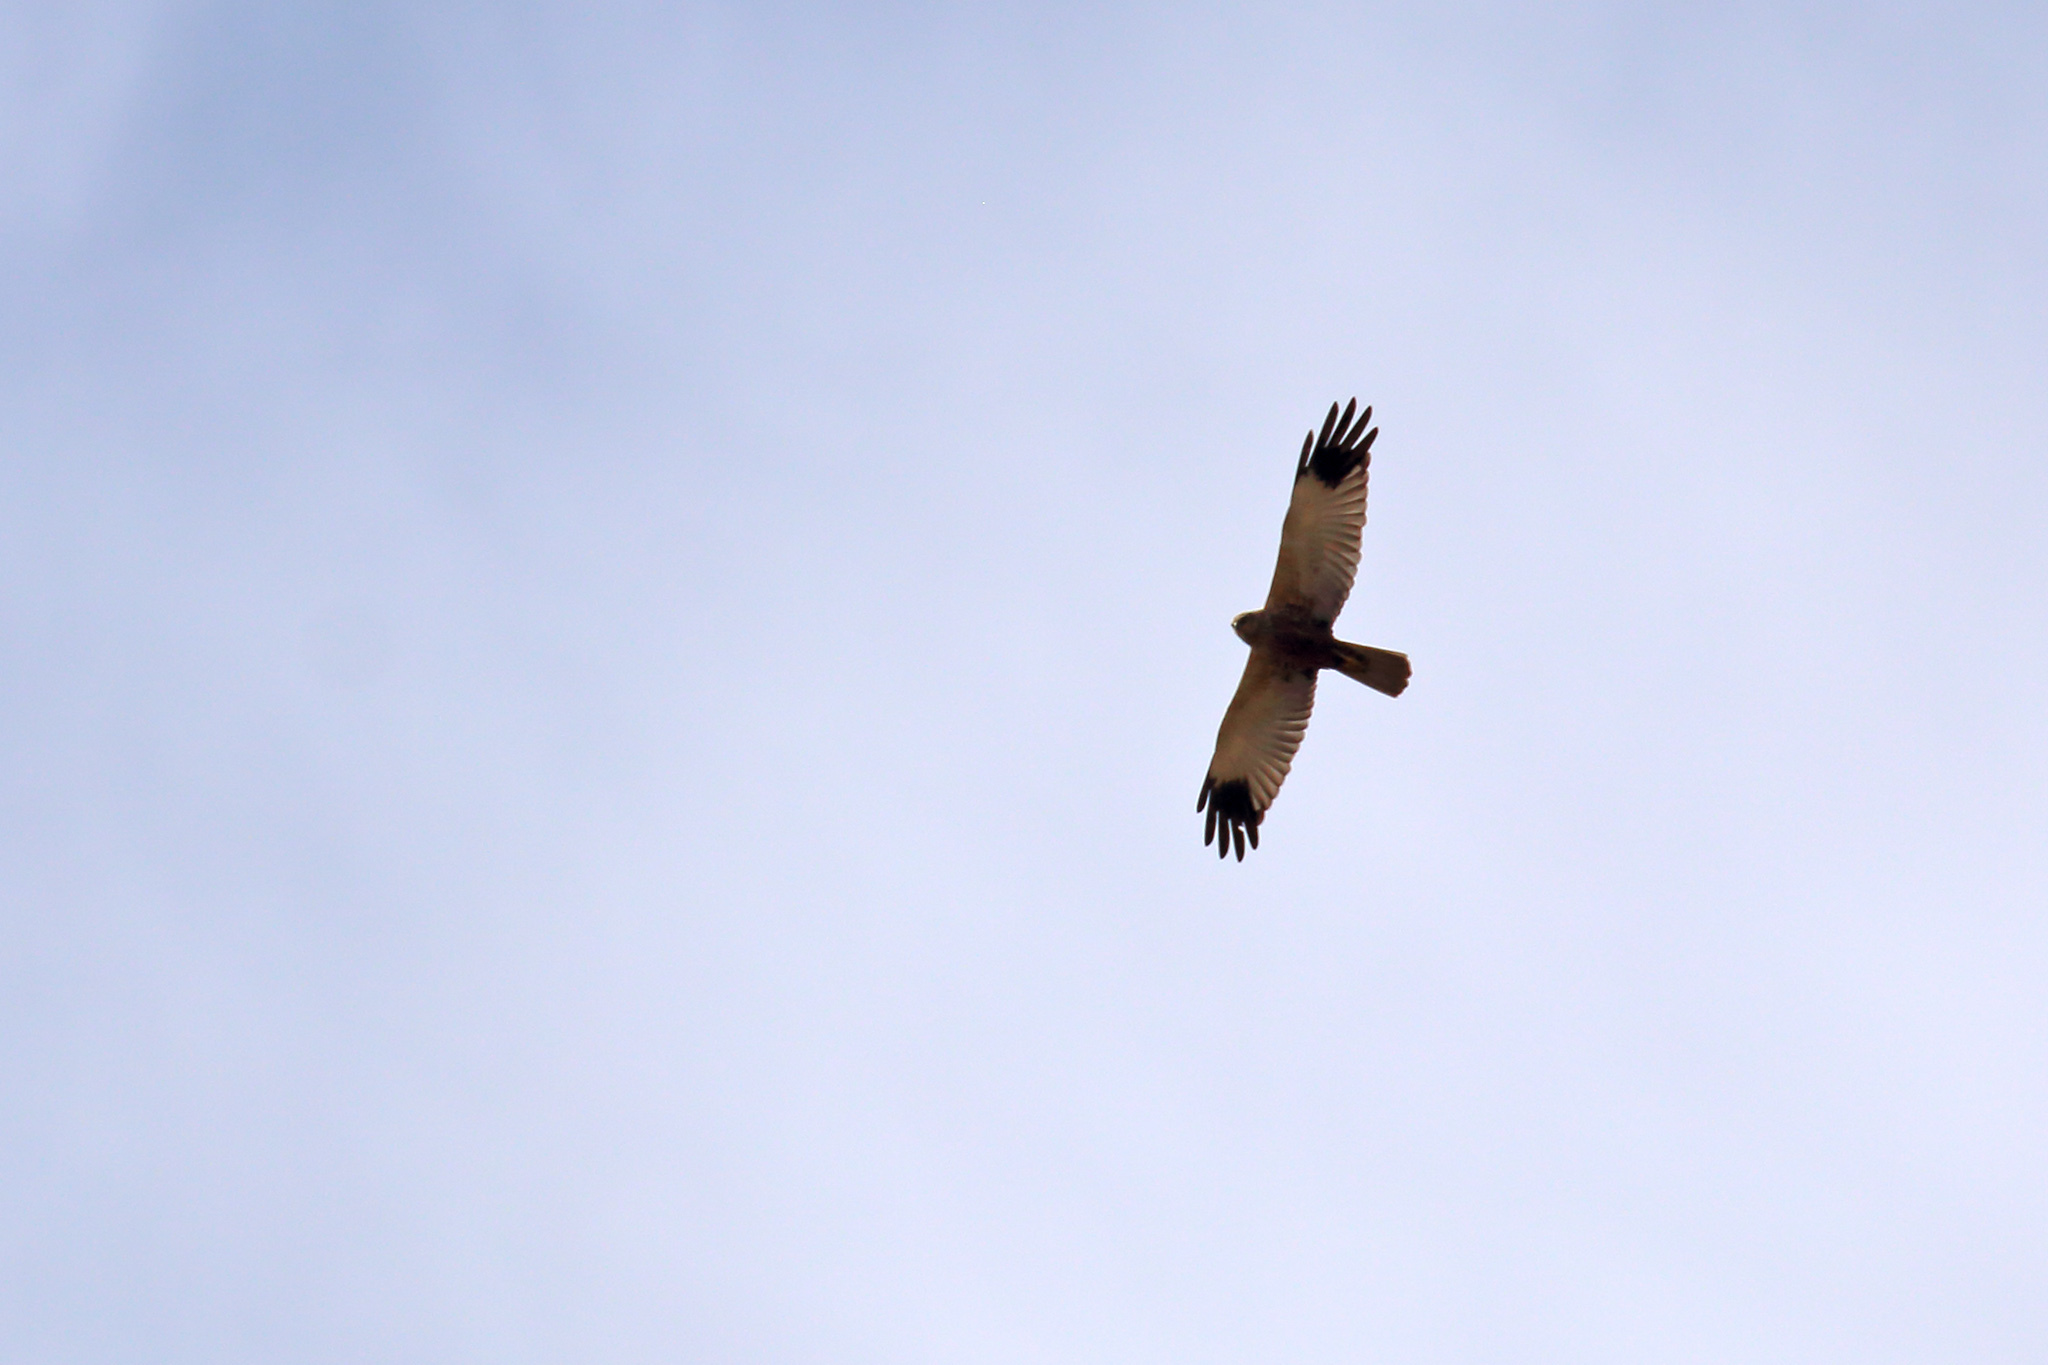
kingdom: Animalia
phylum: Chordata
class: Aves
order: Accipitriformes
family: Accipitridae
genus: Circus
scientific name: Circus aeruginosus
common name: Western marsh harrier
